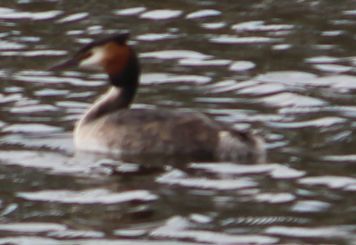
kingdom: Animalia
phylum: Chordata
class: Aves
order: Podicipediformes
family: Podicipedidae
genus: Podiceps
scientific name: Podiceps cristatus
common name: Great crested grebe
